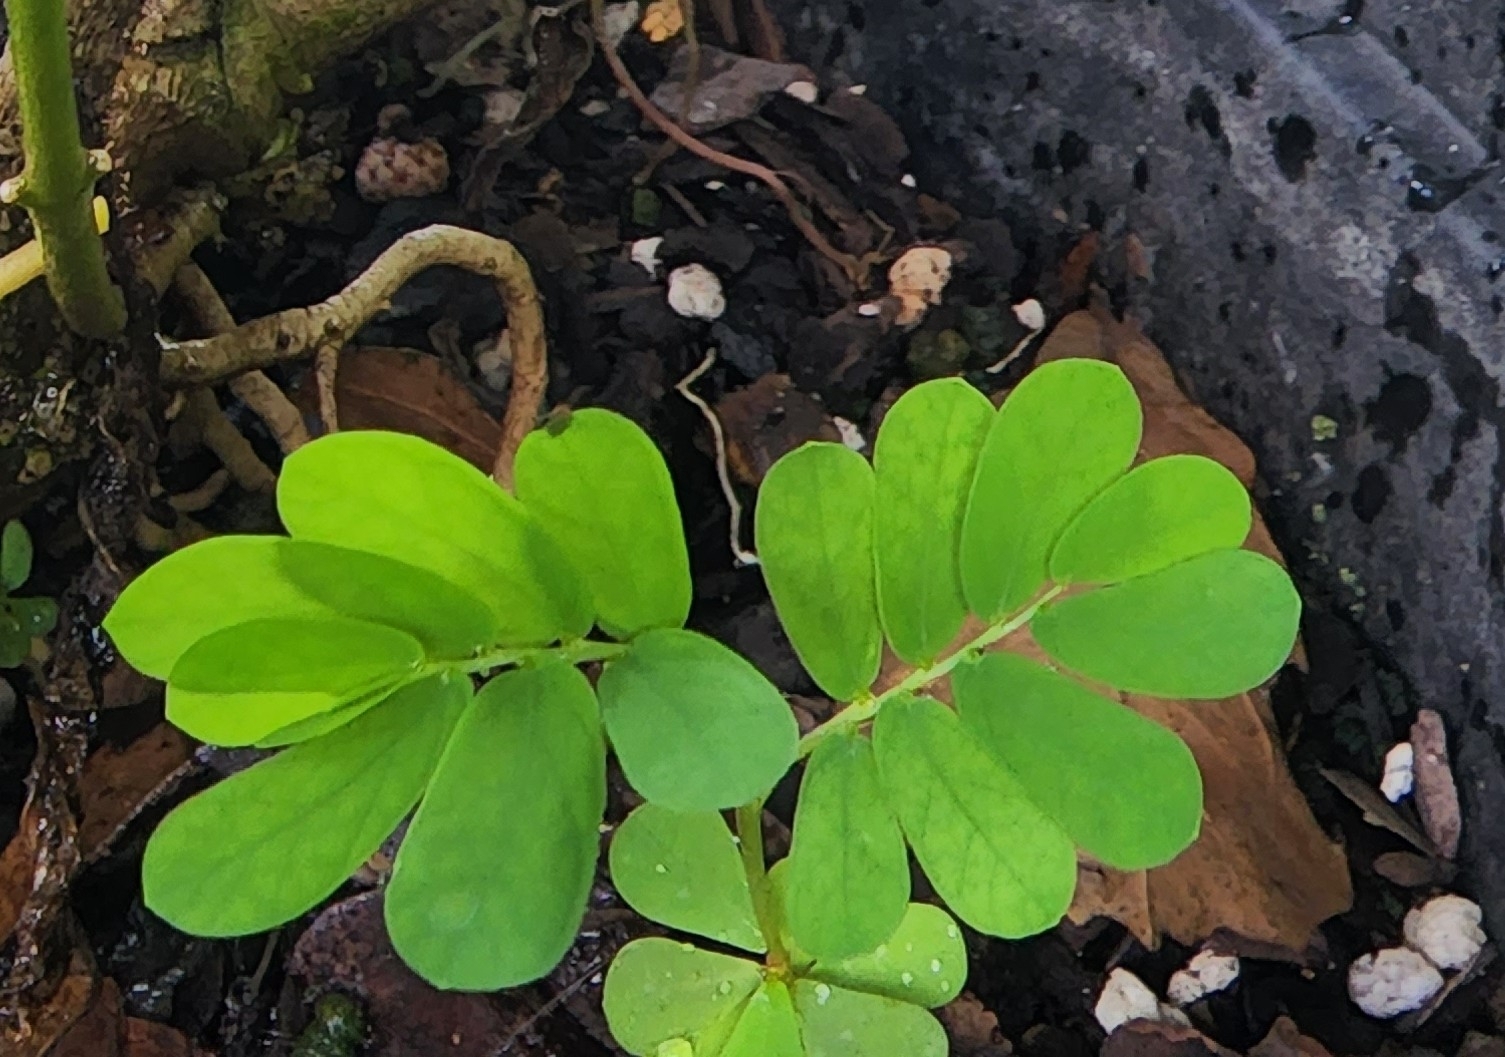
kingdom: Plantae
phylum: Tracheophyta
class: Magnoliopsida
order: Malpighiales
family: Phyllanthaceae
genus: Phyllanthus
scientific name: Phyllanthus urinaria
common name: Chamber bitter
